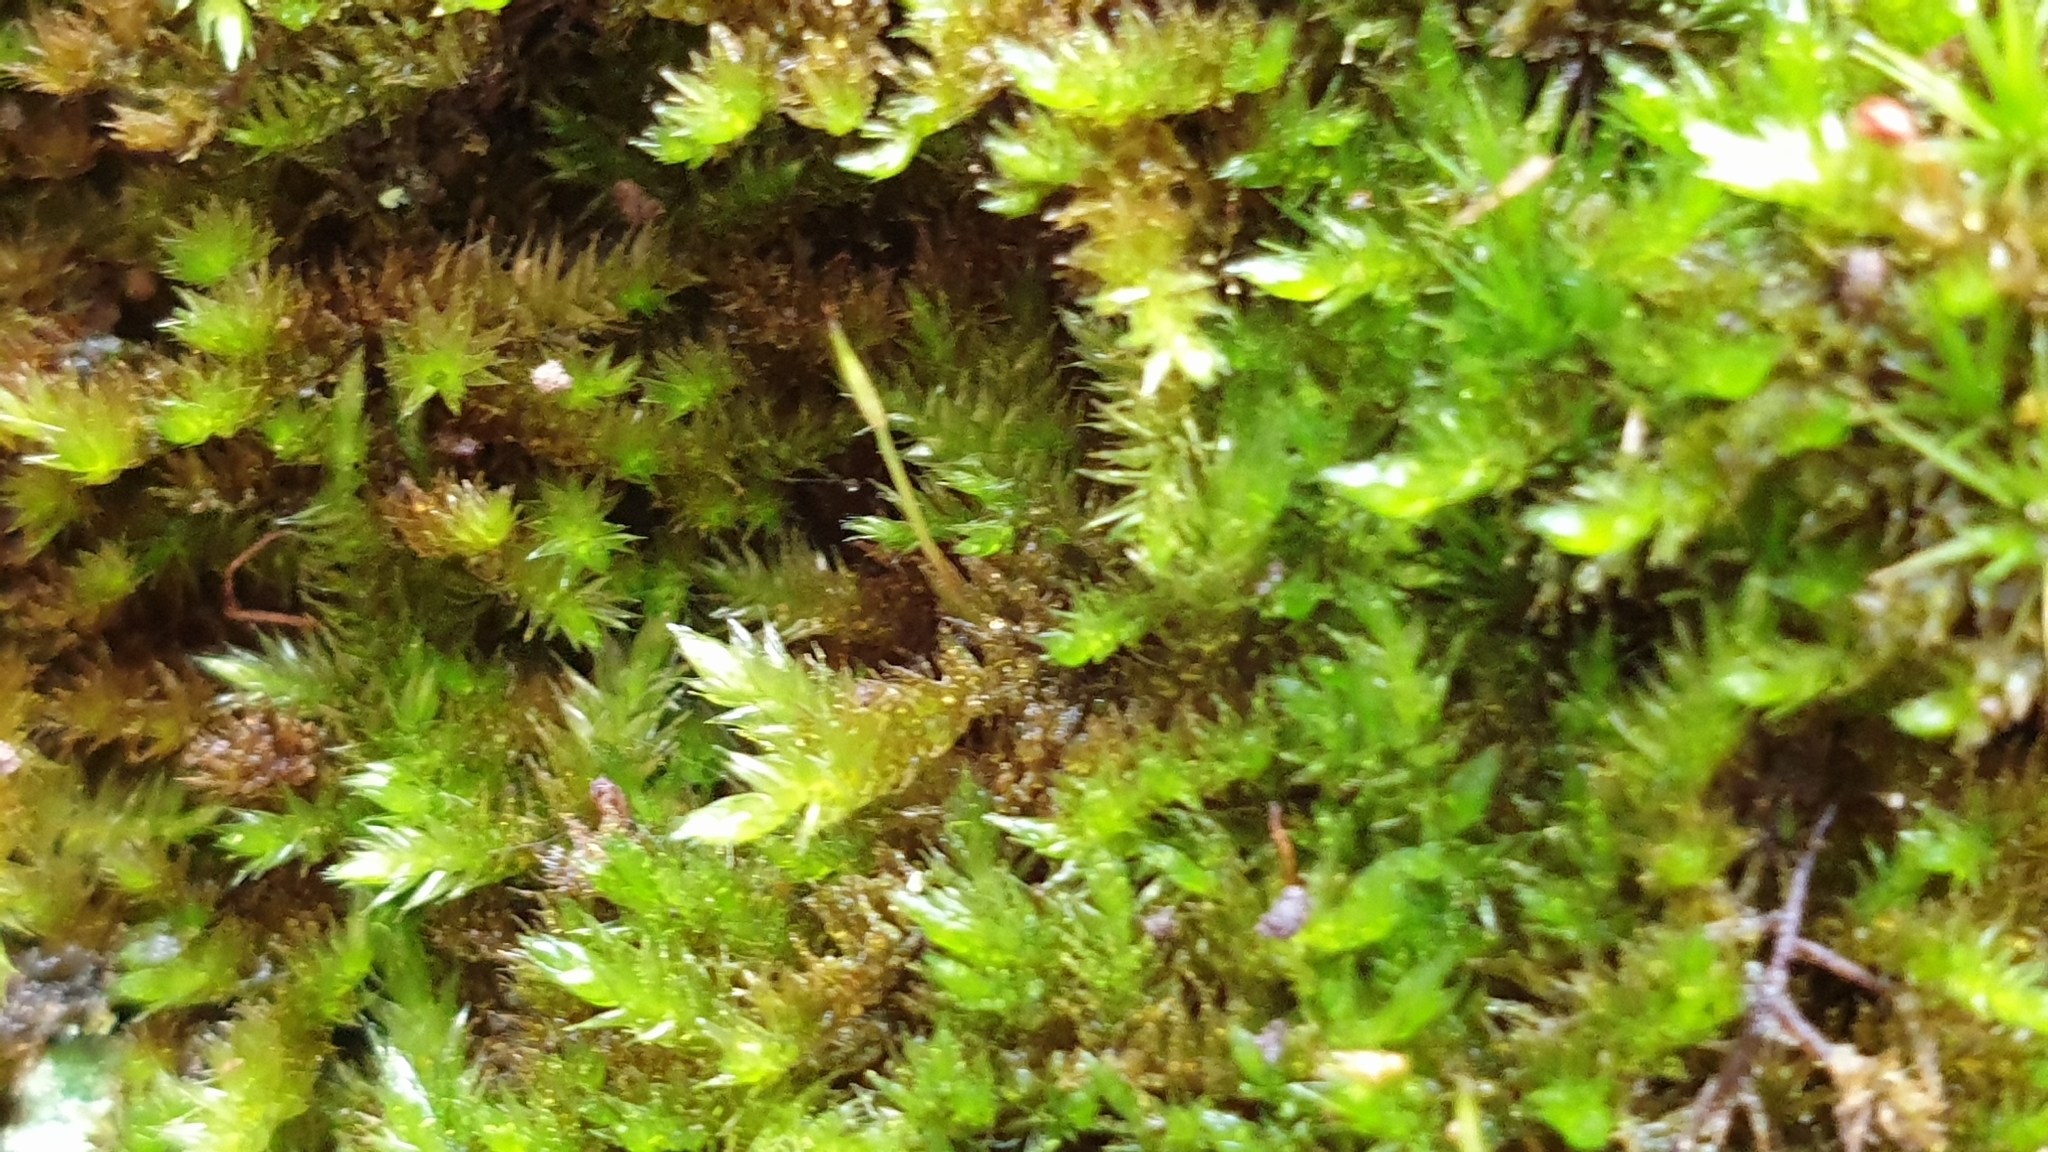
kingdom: Plantae
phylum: Bryophyta
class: Bryopsida
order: Hypnales
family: Sematophyllaceae
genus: Sematophyllum
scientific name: Sematophyllum homomallum
